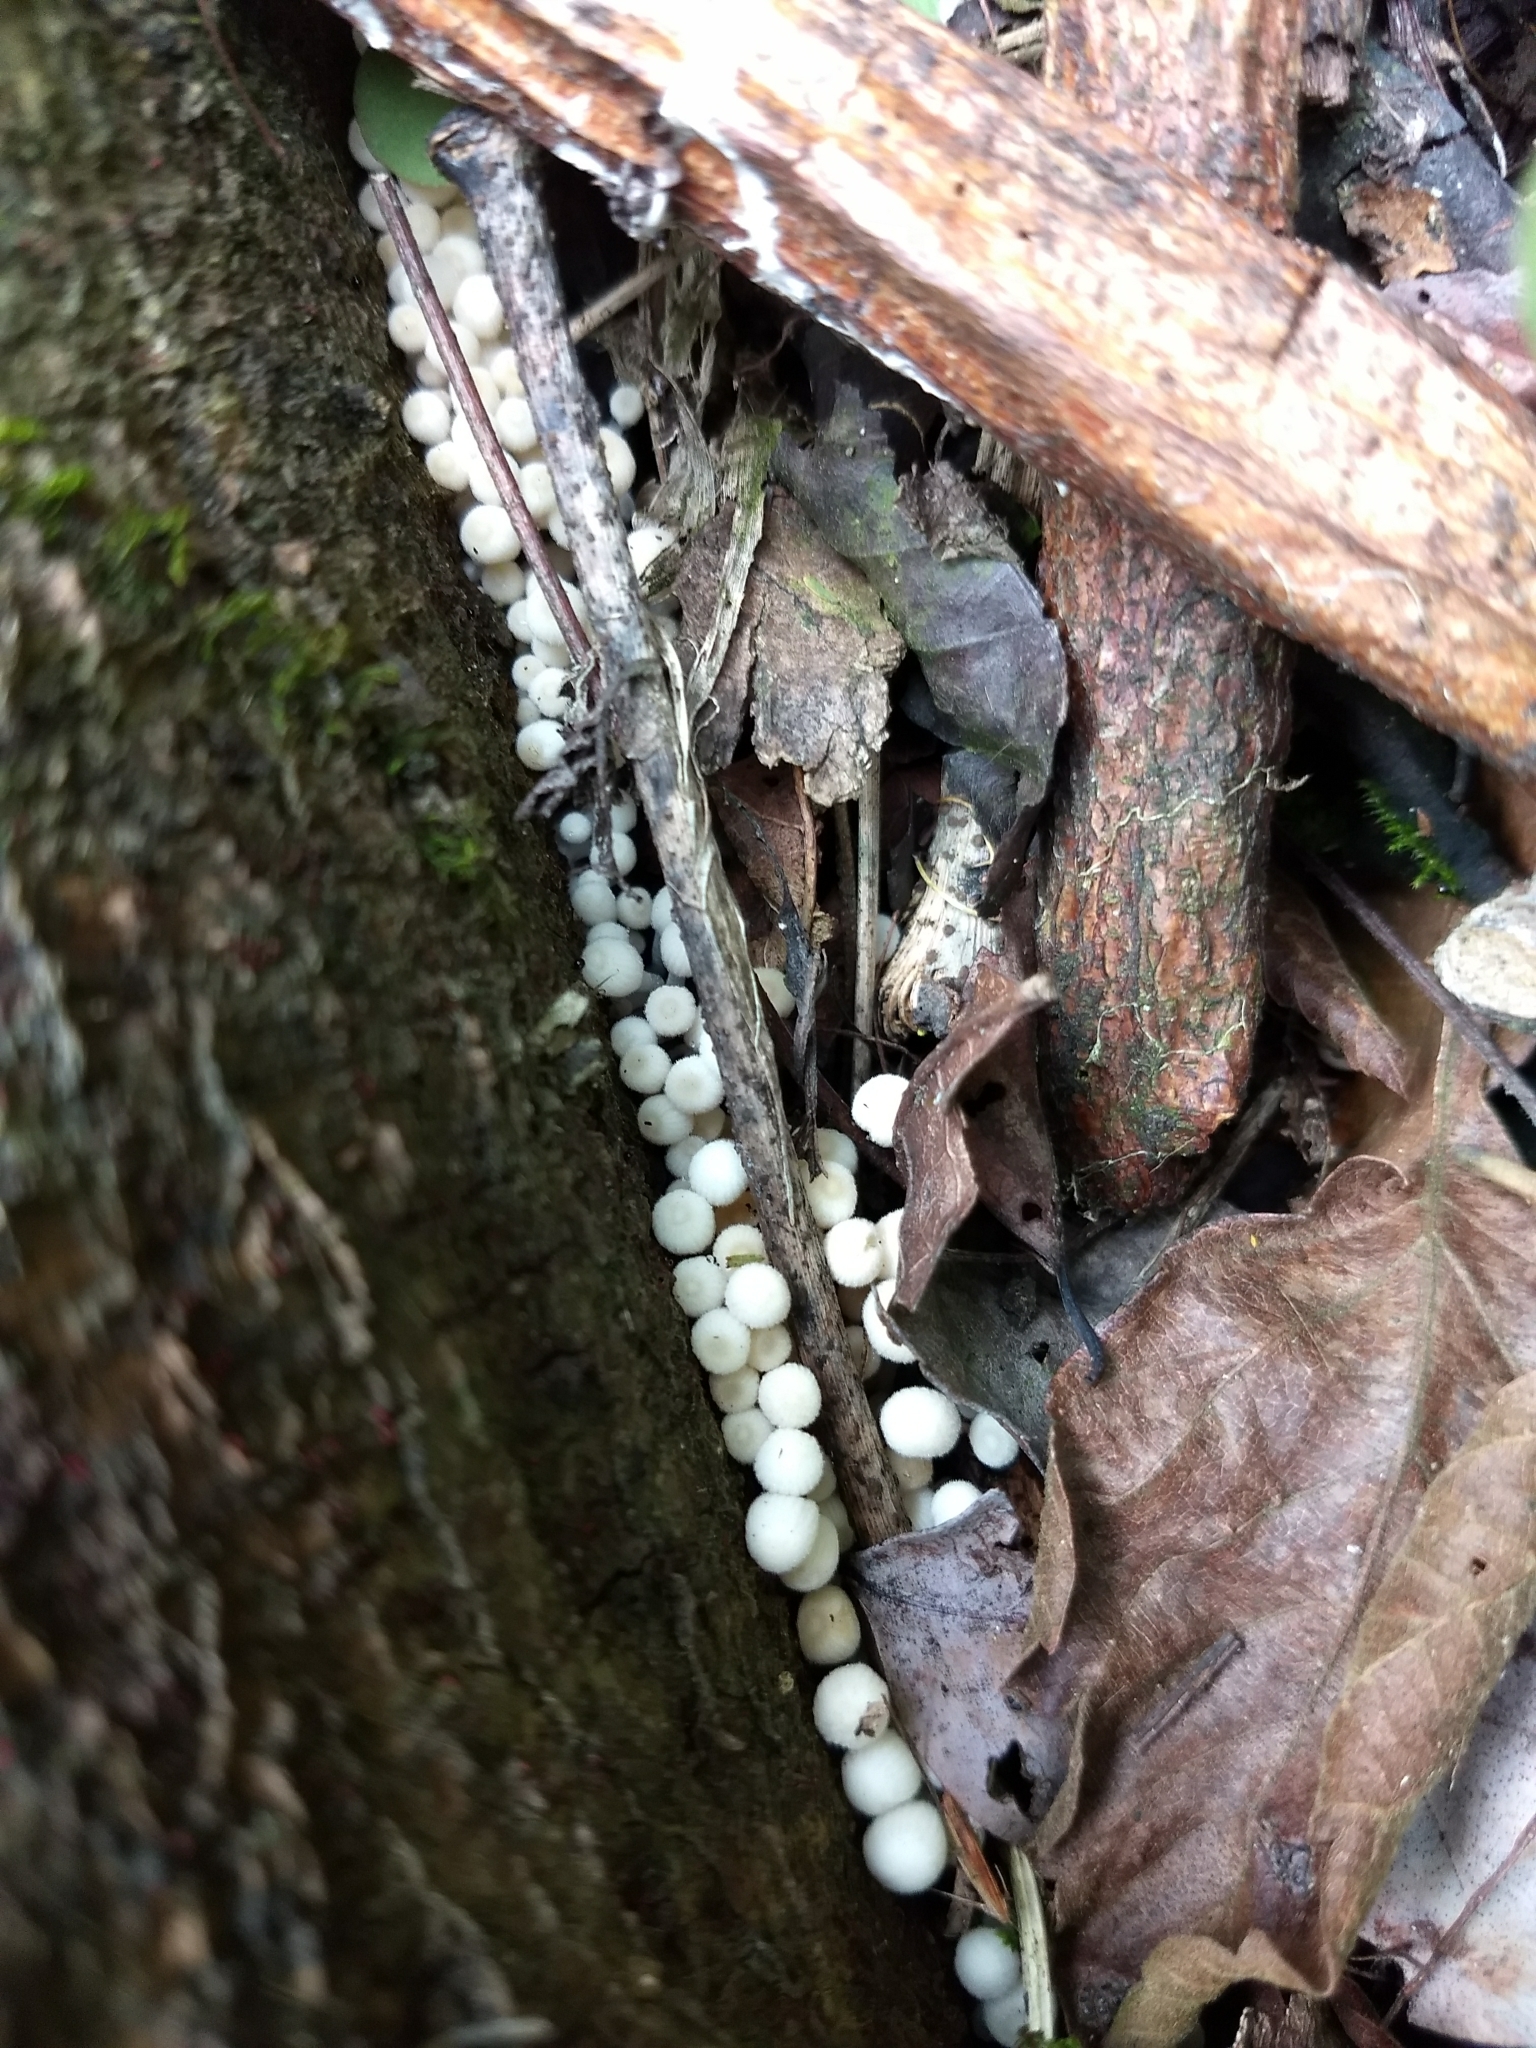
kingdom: Fungi
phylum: Basidiomycota
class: Agaricomycetes
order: Agaricales
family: Psathyrellaceae
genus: Coprinellus
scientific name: Coprinellus disseminatus
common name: Fairies' bonnets
